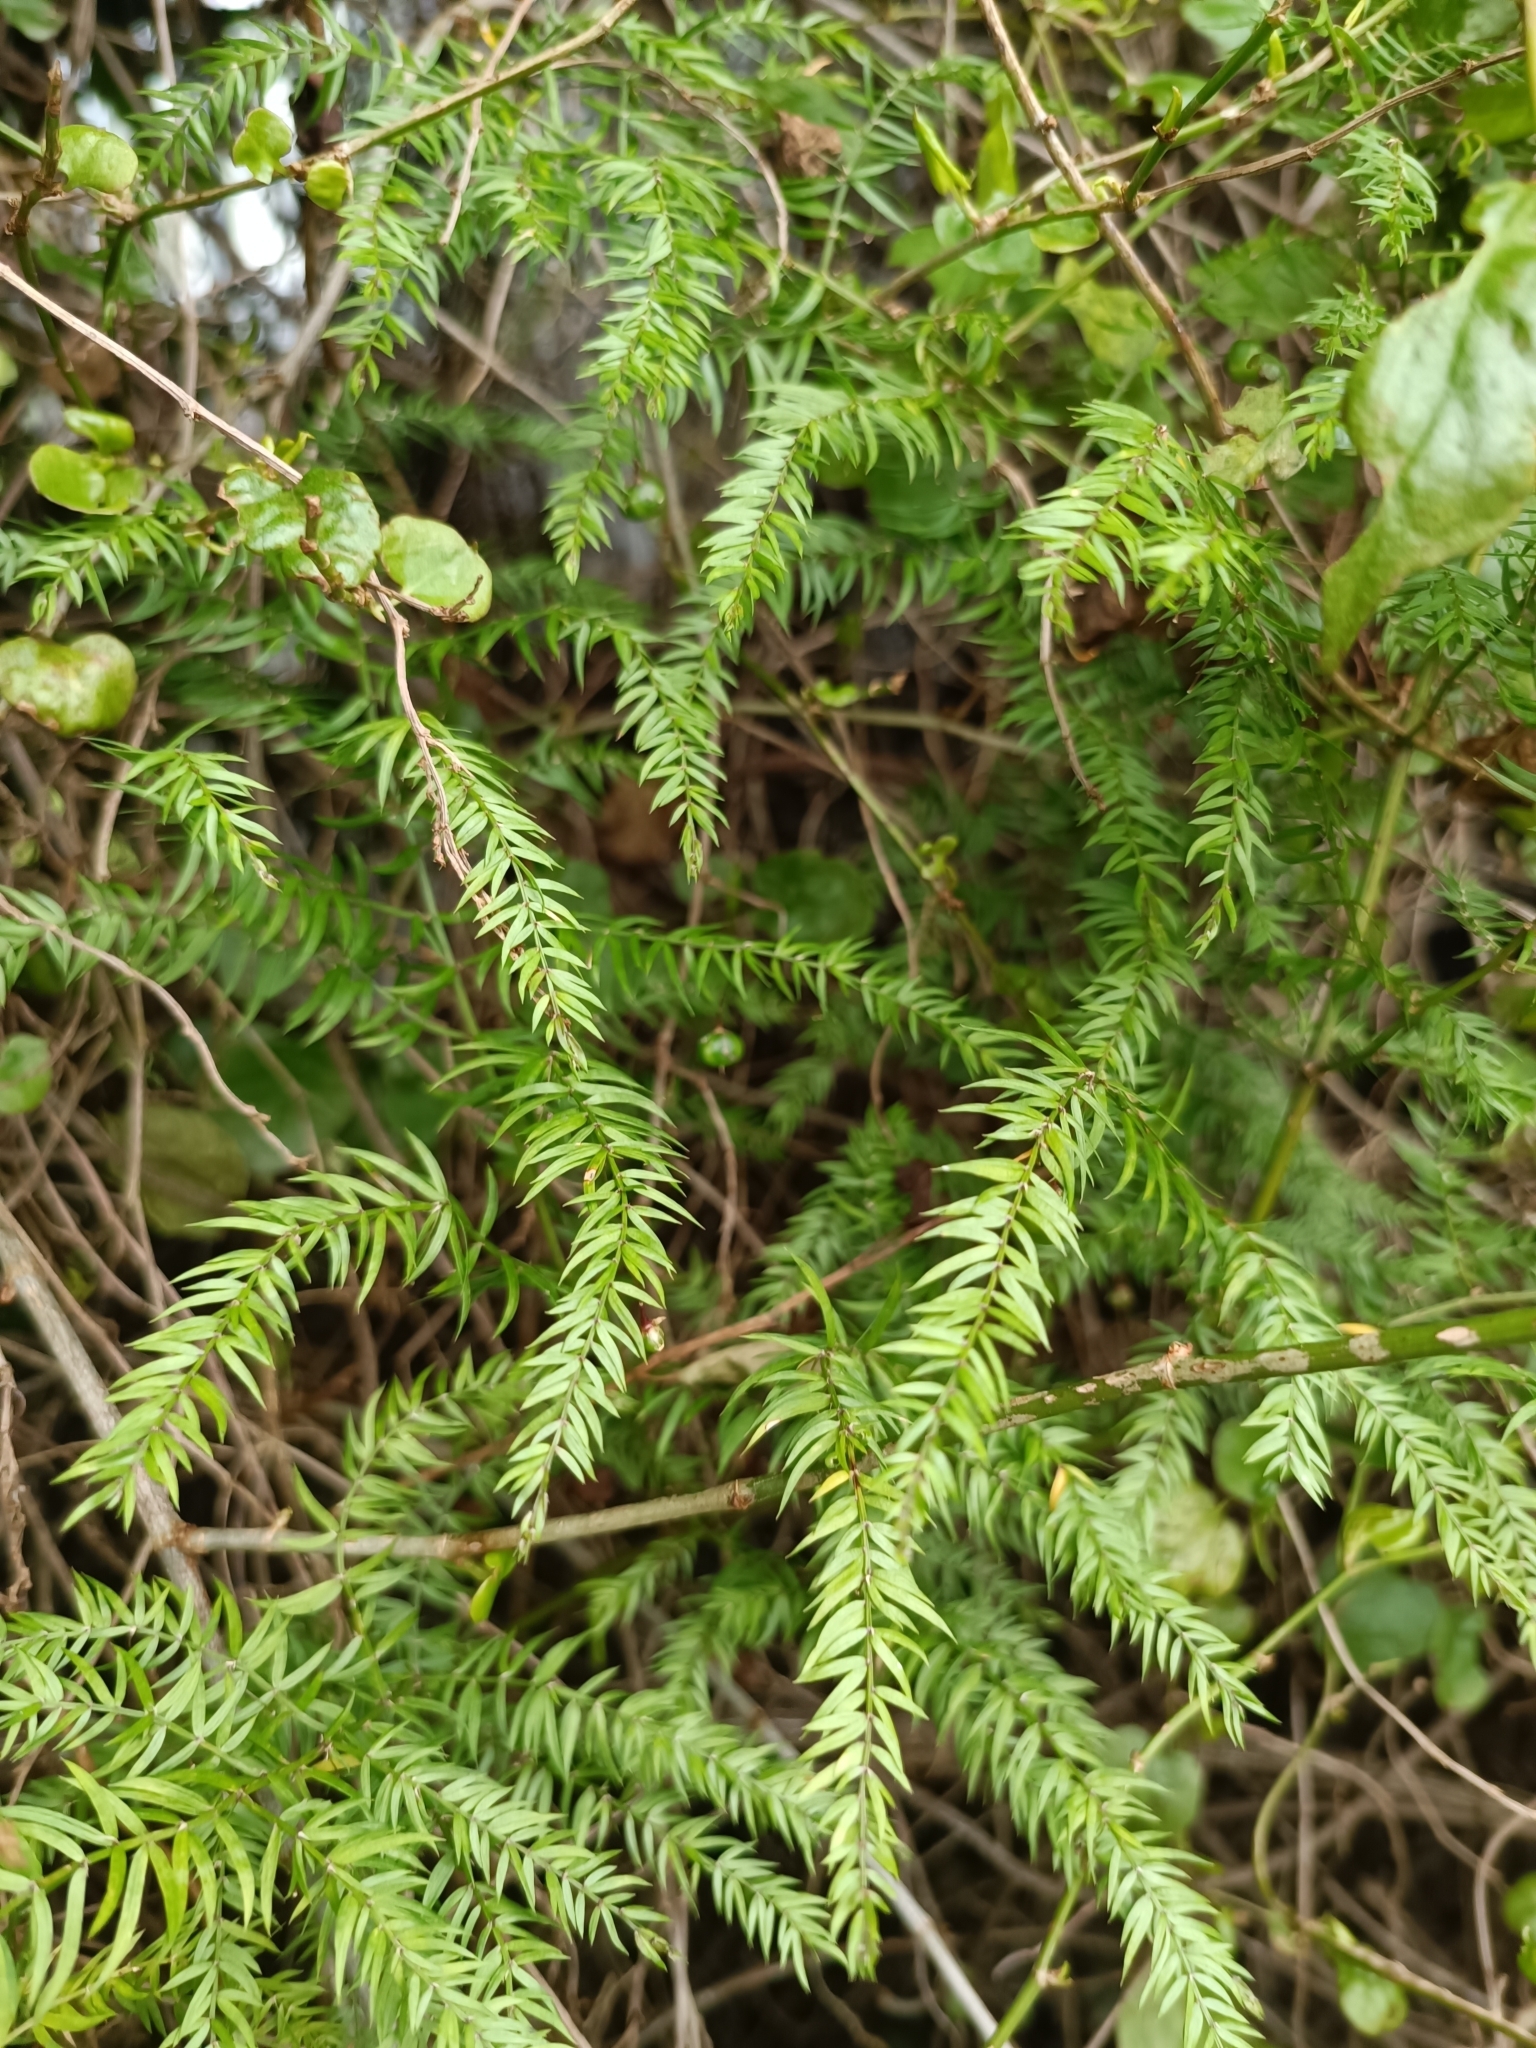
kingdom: Plantae
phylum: Tracheophyta
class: Liliopsida
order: Asparagales
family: Asparagaceae
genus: Asparagus
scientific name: Asparagus scandens
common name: Asparagus-fern
